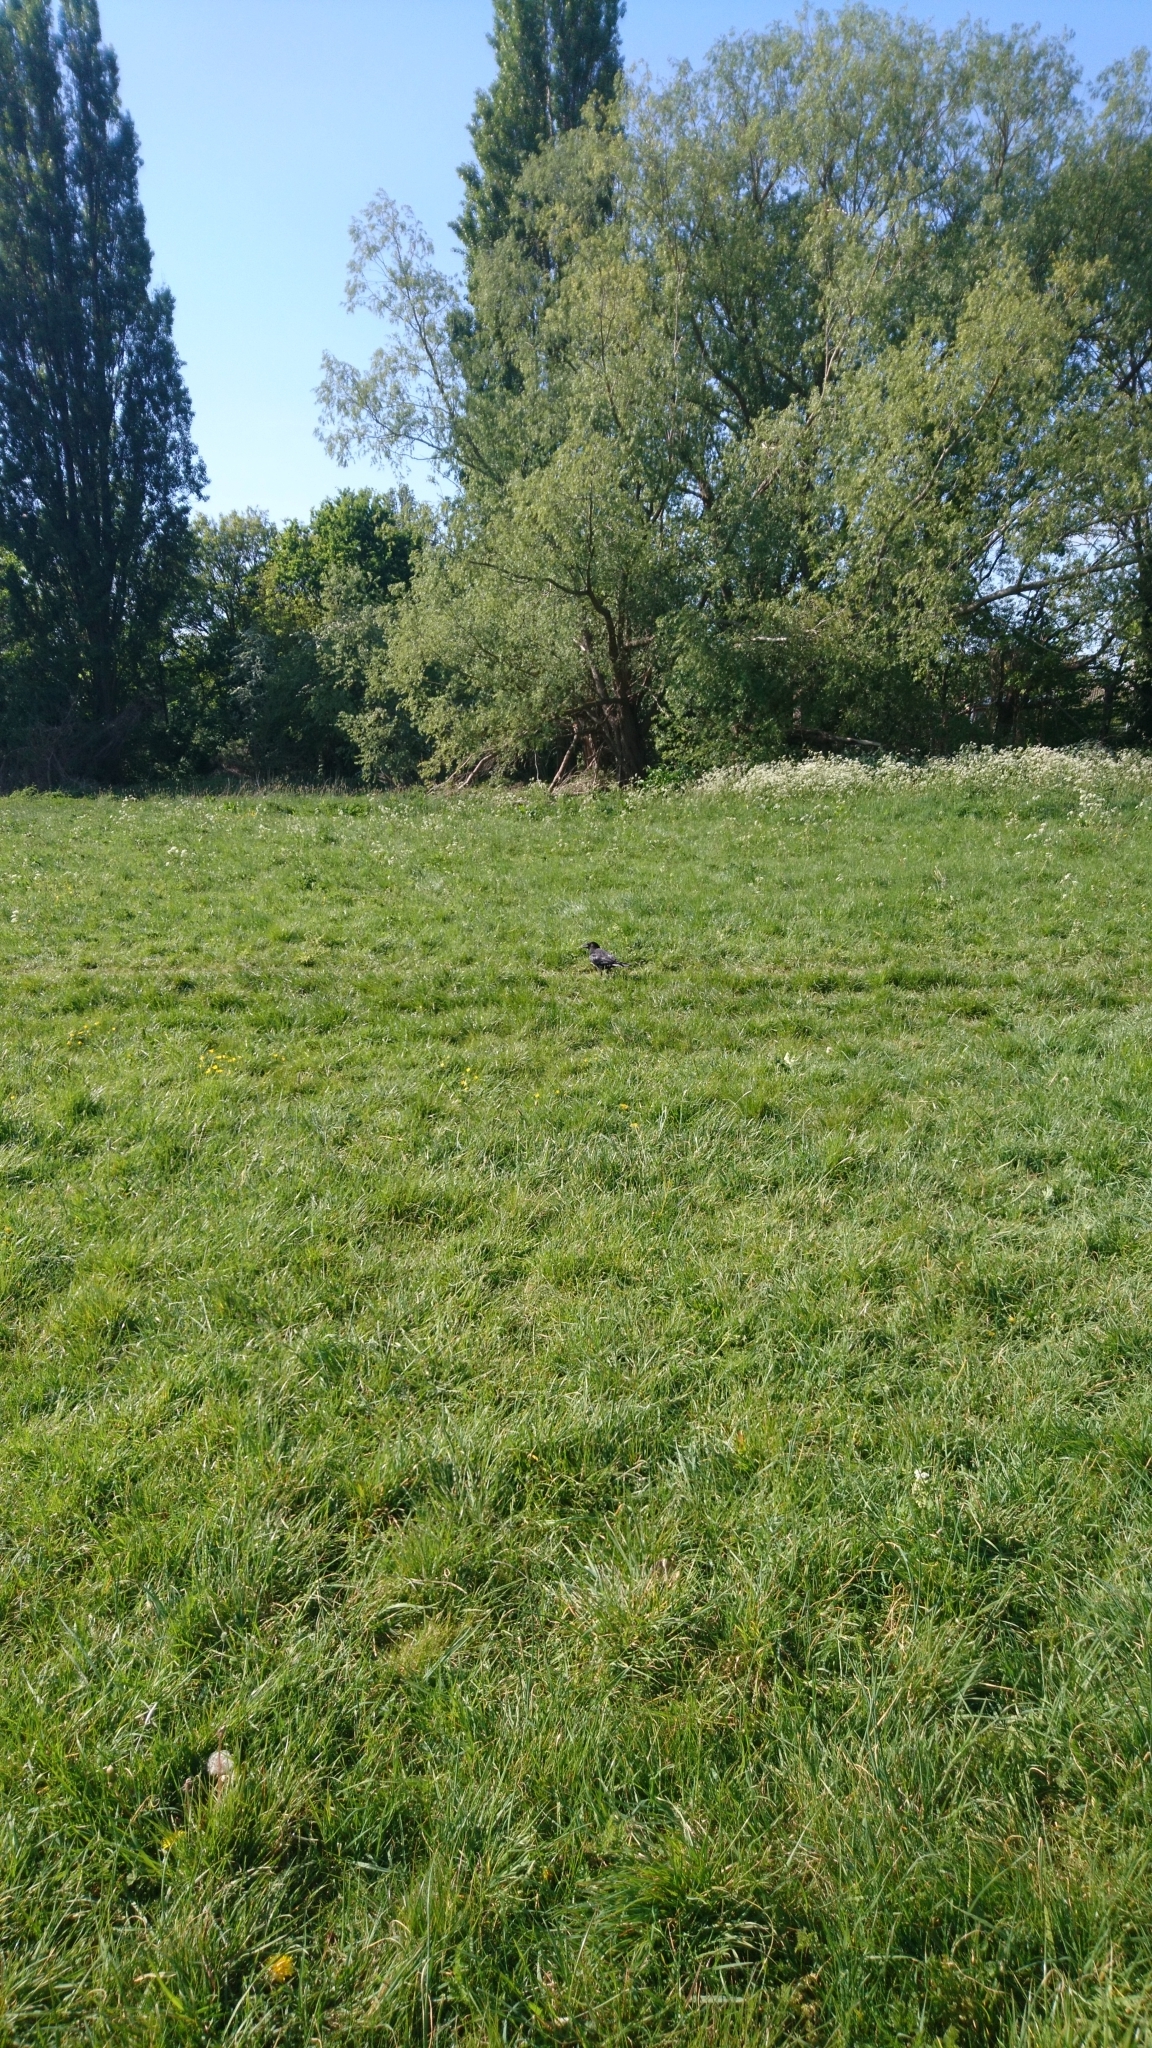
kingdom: Animalia
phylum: Chordata
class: Aves
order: Passeriformes
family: Corvidae
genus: Corvus
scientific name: Corvus corone
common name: Carrion crow
